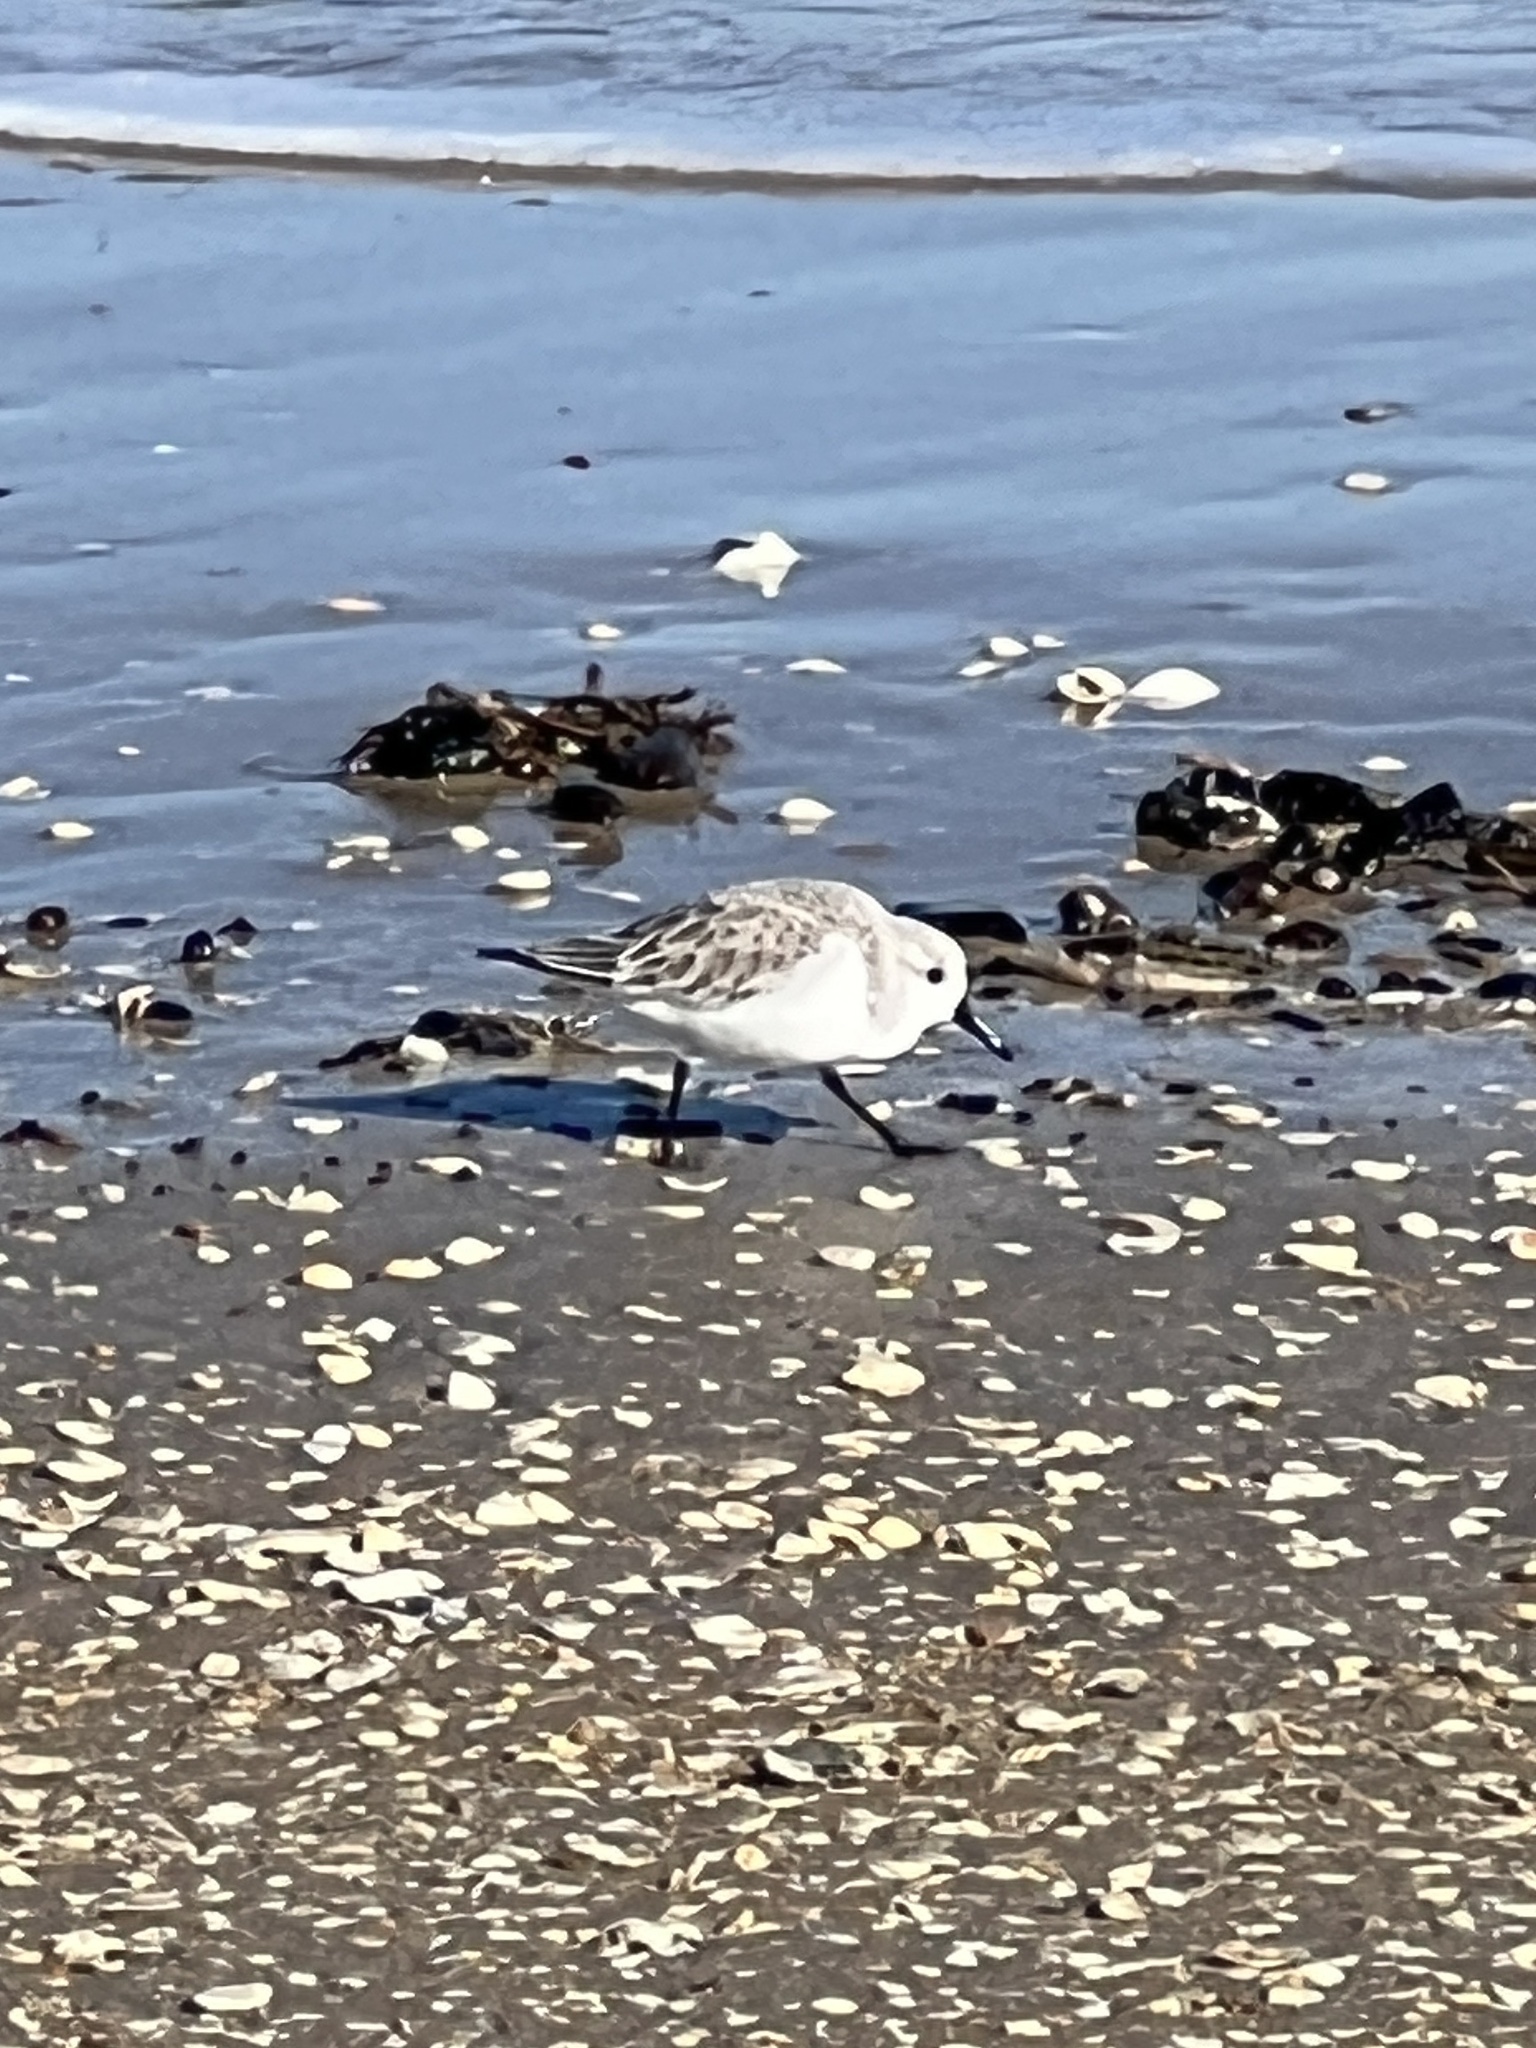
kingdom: Animalia
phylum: Chordata
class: Aves
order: Charadriiformes
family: Scolopacidae
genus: Calidris
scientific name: Calidris alba
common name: Sanderling
